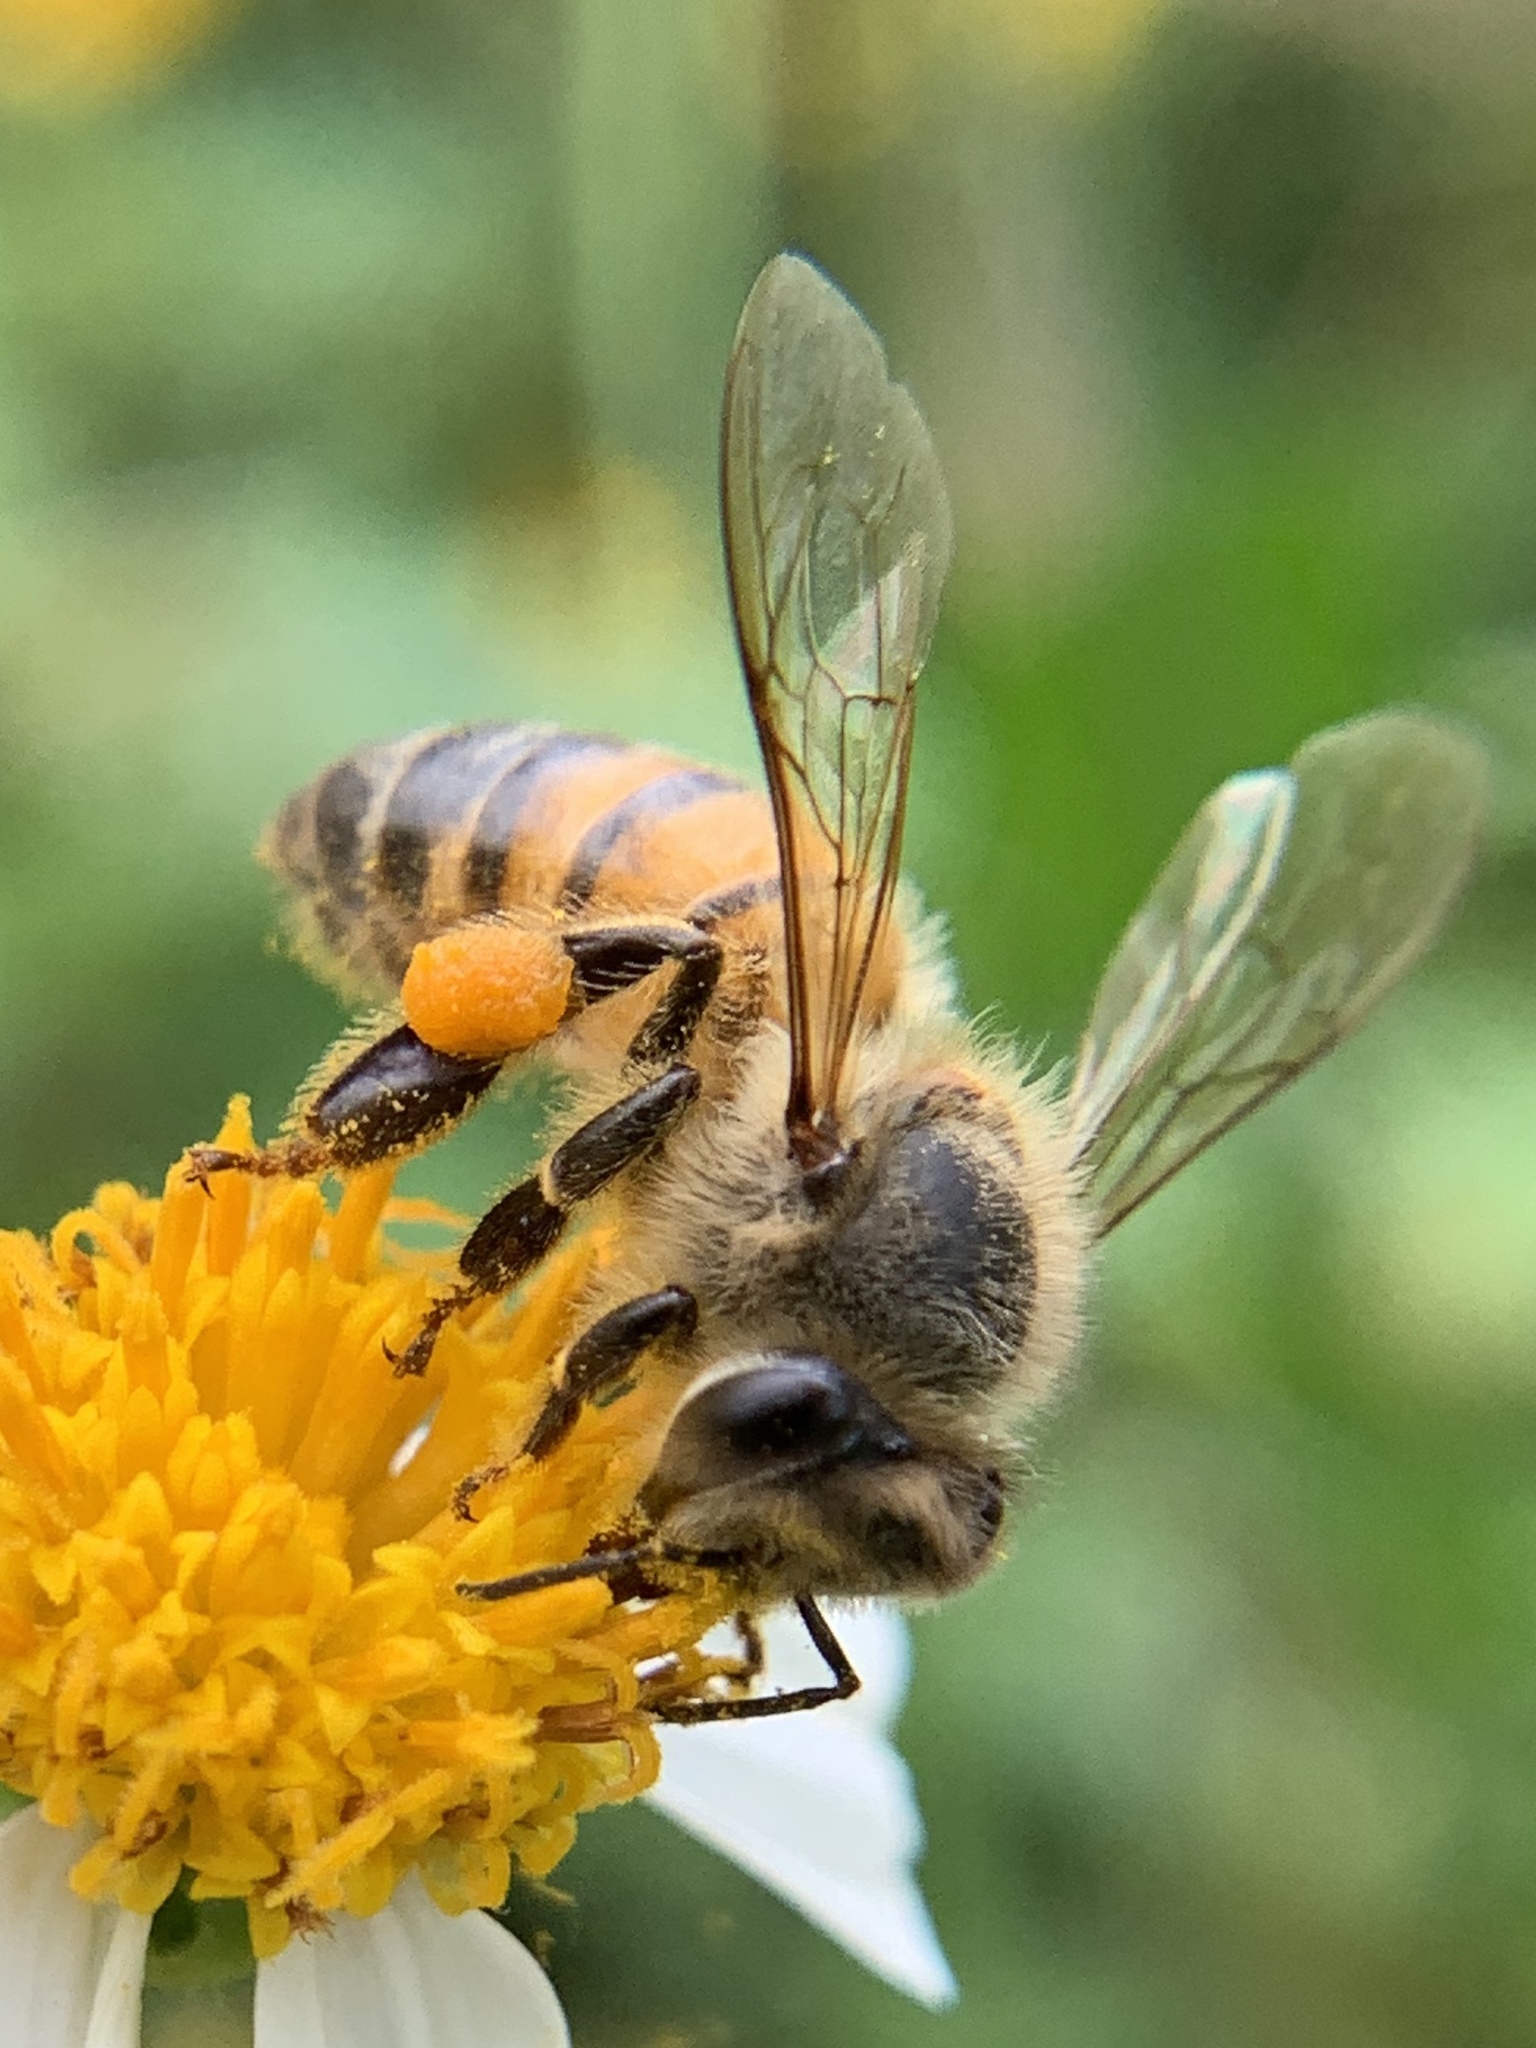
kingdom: Animalia
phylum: Arthropoda
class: Insecta
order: Hymenoptera
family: Apidae
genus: Apis
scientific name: Apis mellifera
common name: Honey bee
